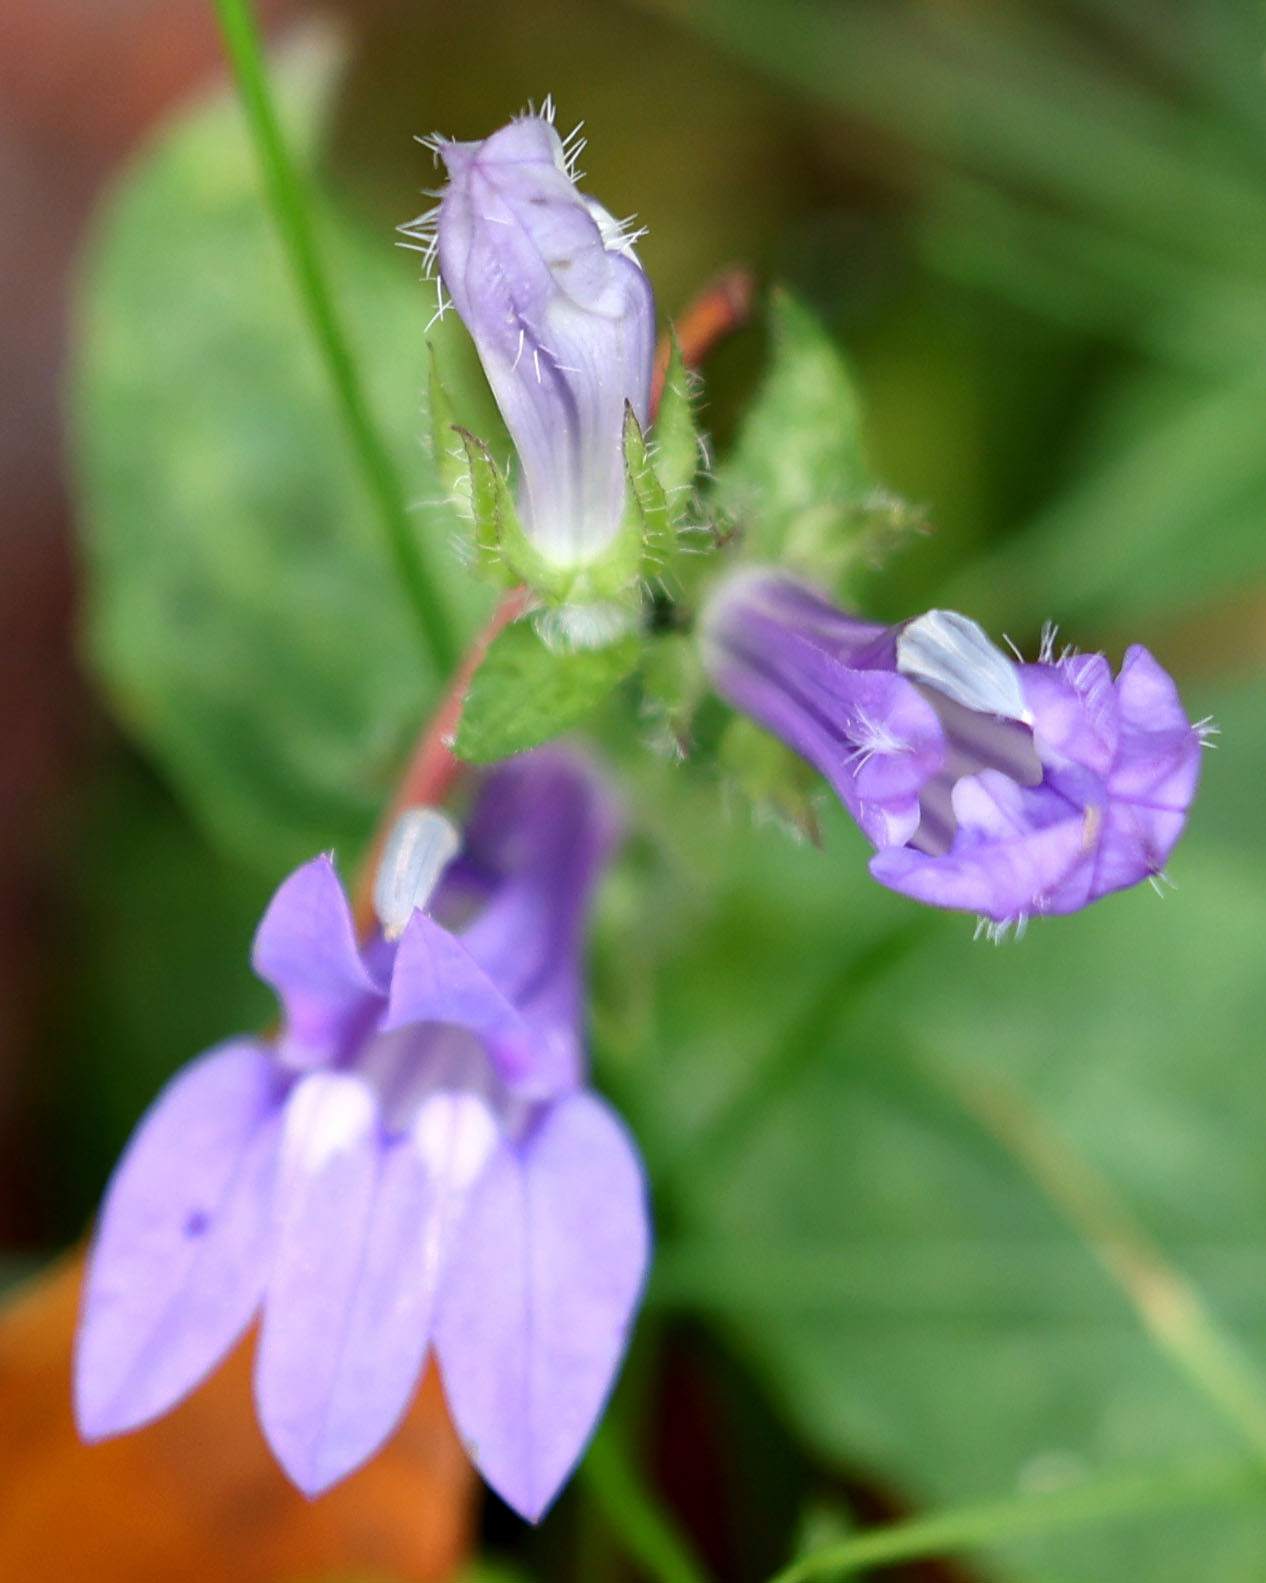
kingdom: Plantae
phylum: Tracheophyta
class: Magnoliopsida
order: Asterales
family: Campanulaceae
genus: Lobelia
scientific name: Lobelia siphilitica
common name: Great lobelia
